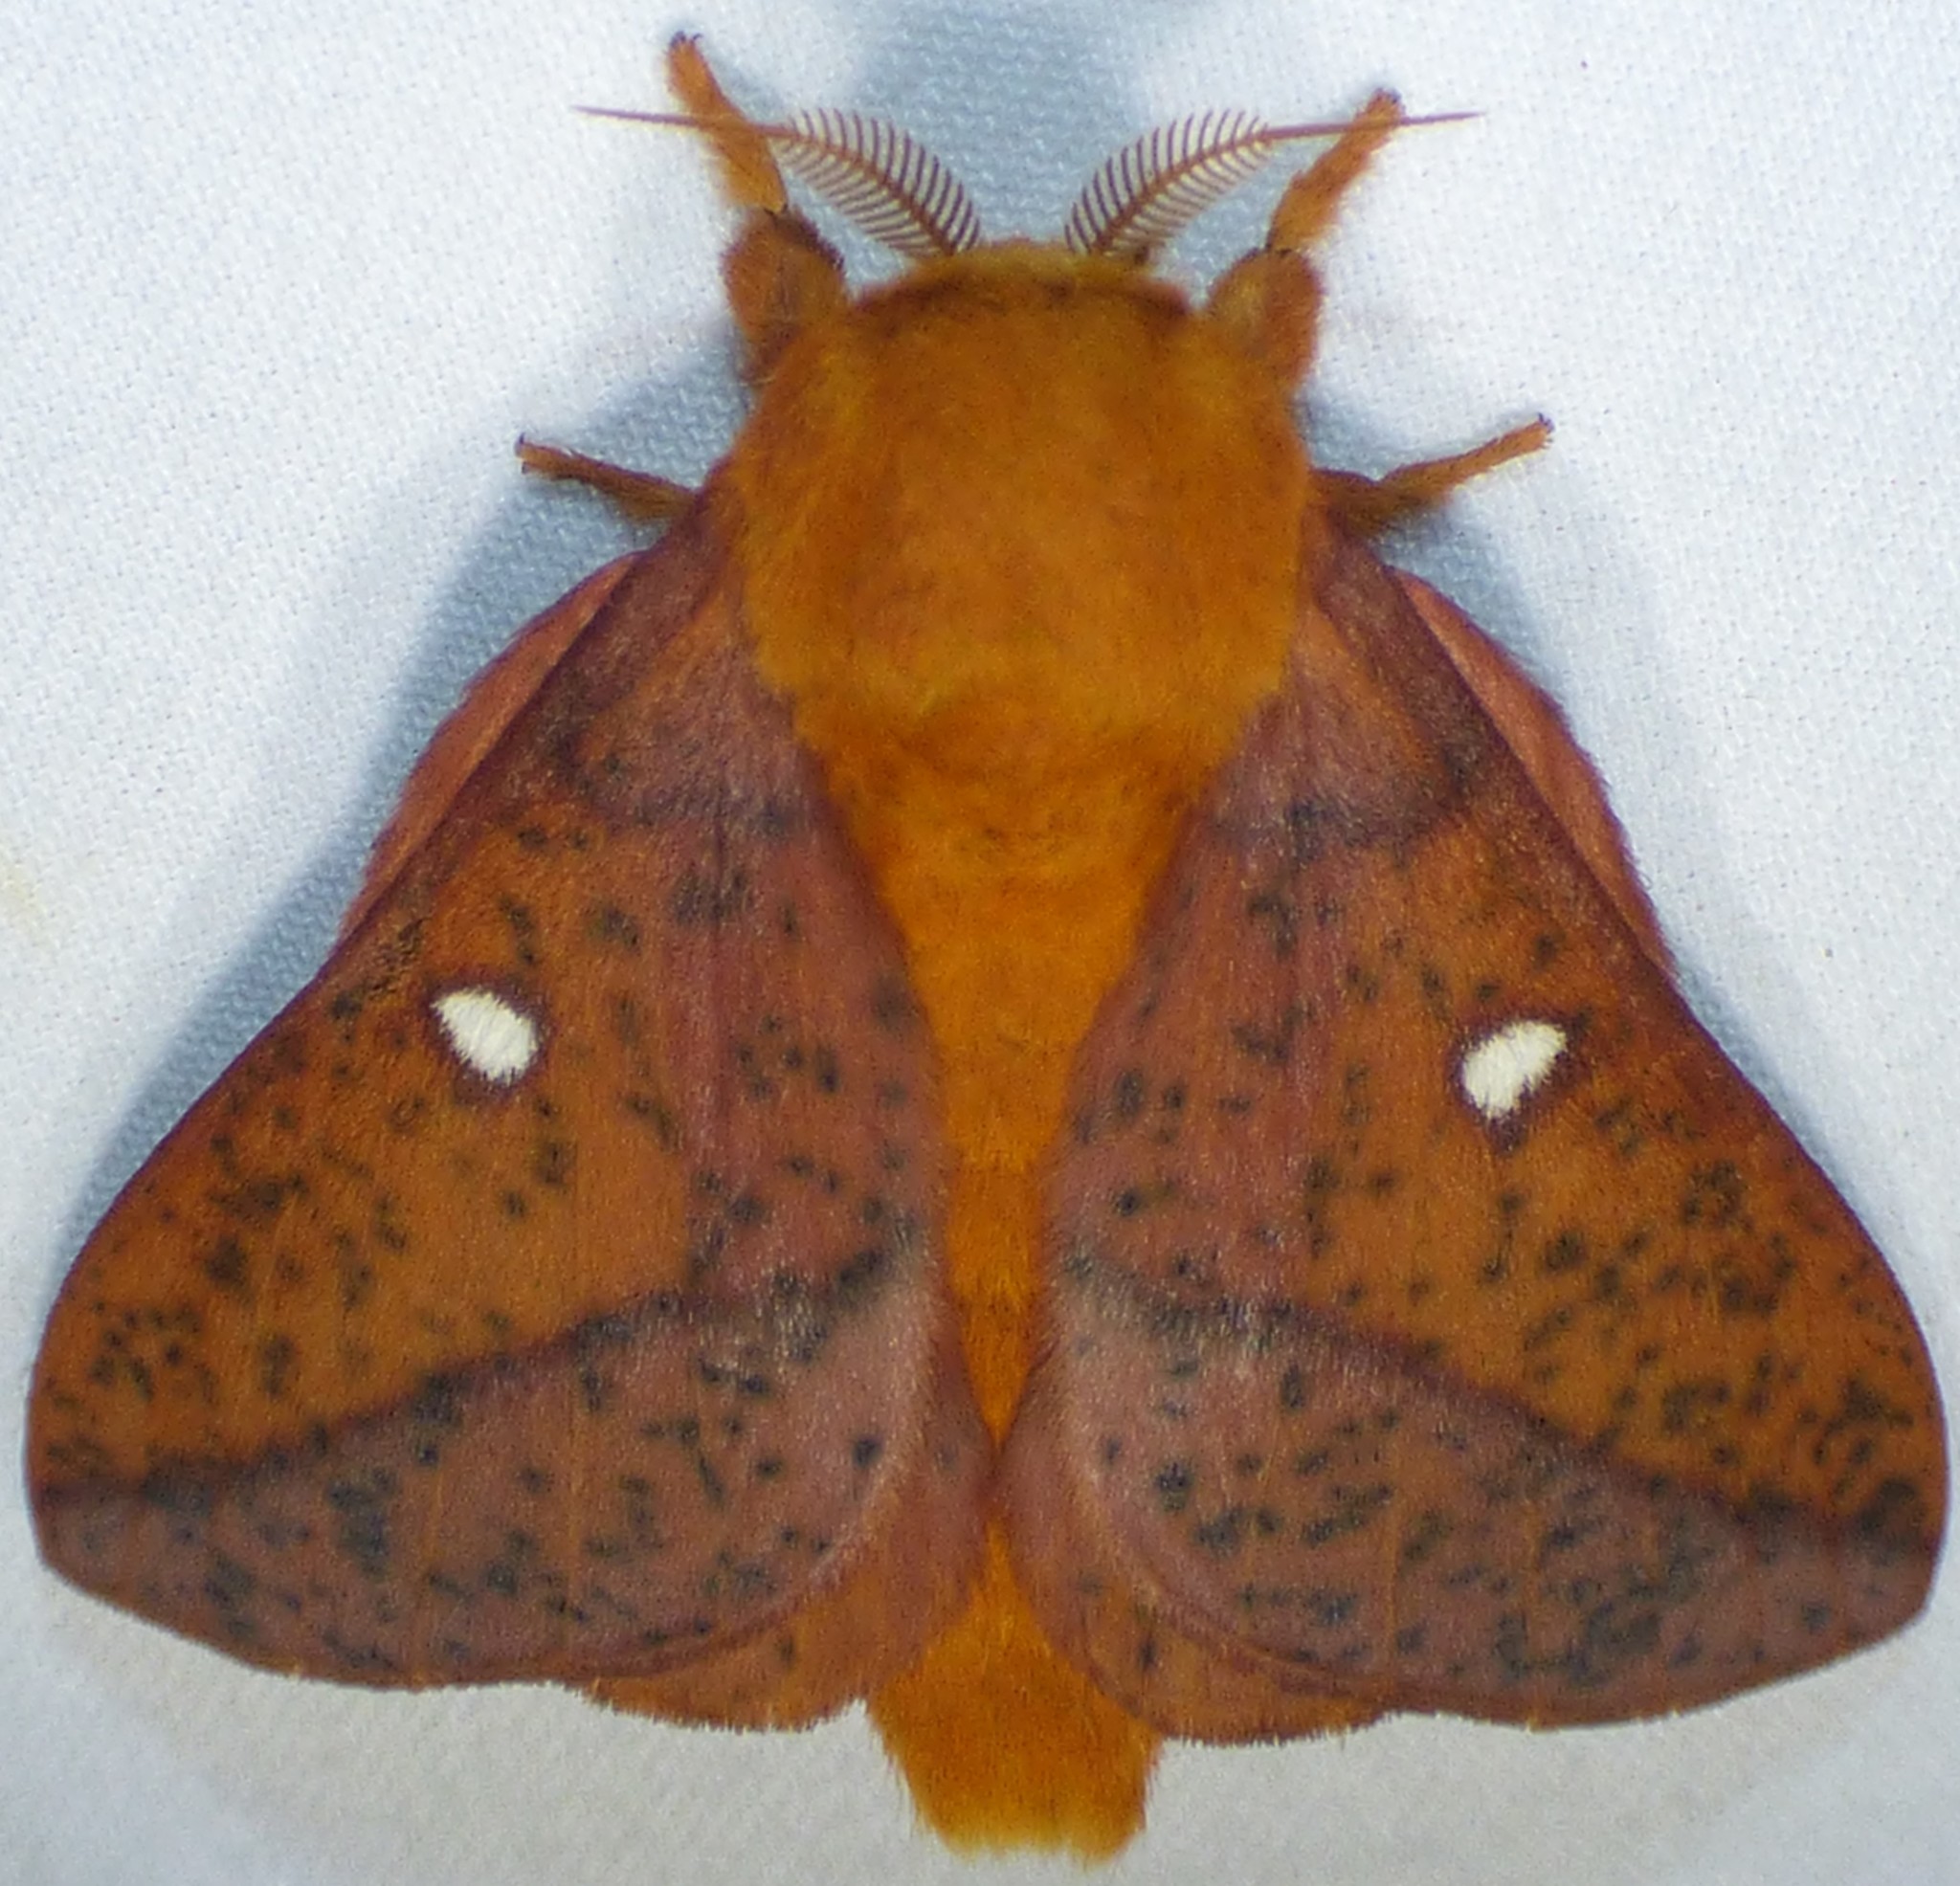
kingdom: Animalia
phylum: Arthropoda
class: Insecta
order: Lepidoptera
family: Saturniidae
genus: Anisota
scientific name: Anisota stigma
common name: Spiny oakworm moth
